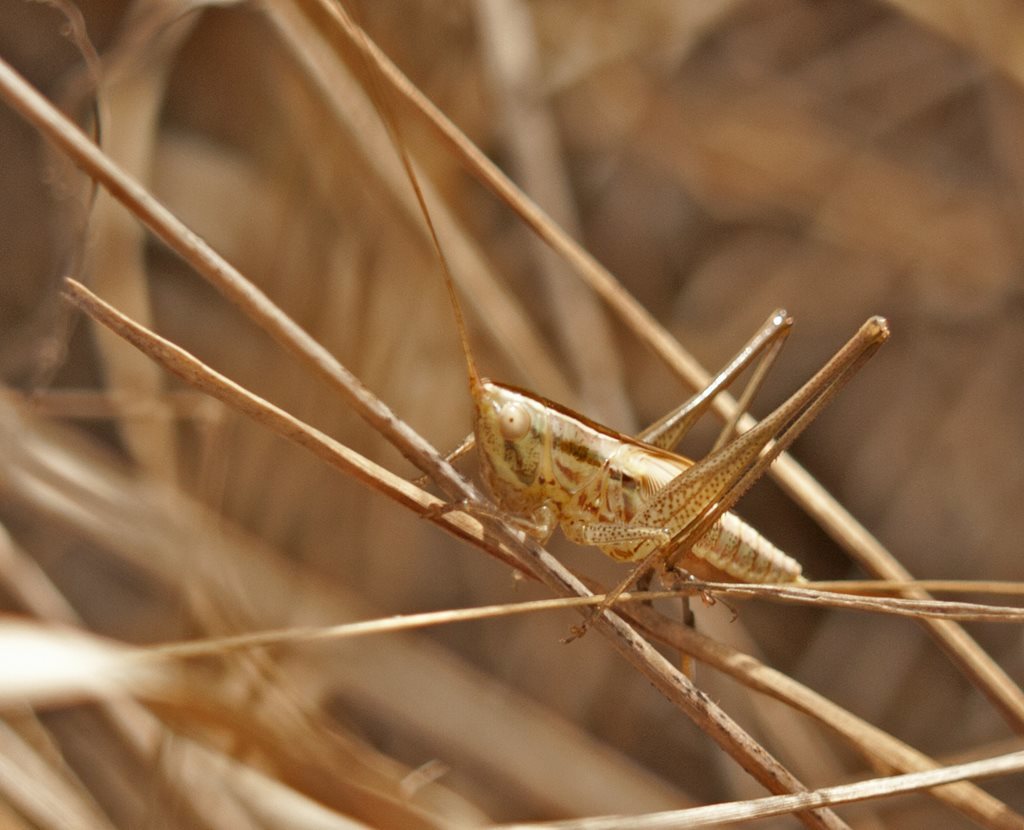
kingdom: Animalia
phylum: Arthropoda
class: Insecta
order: Orthoptera
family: Tettigoniidae
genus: Conocephalus
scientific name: Conocephalus upoluensis
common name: Upolu meadow katydid
